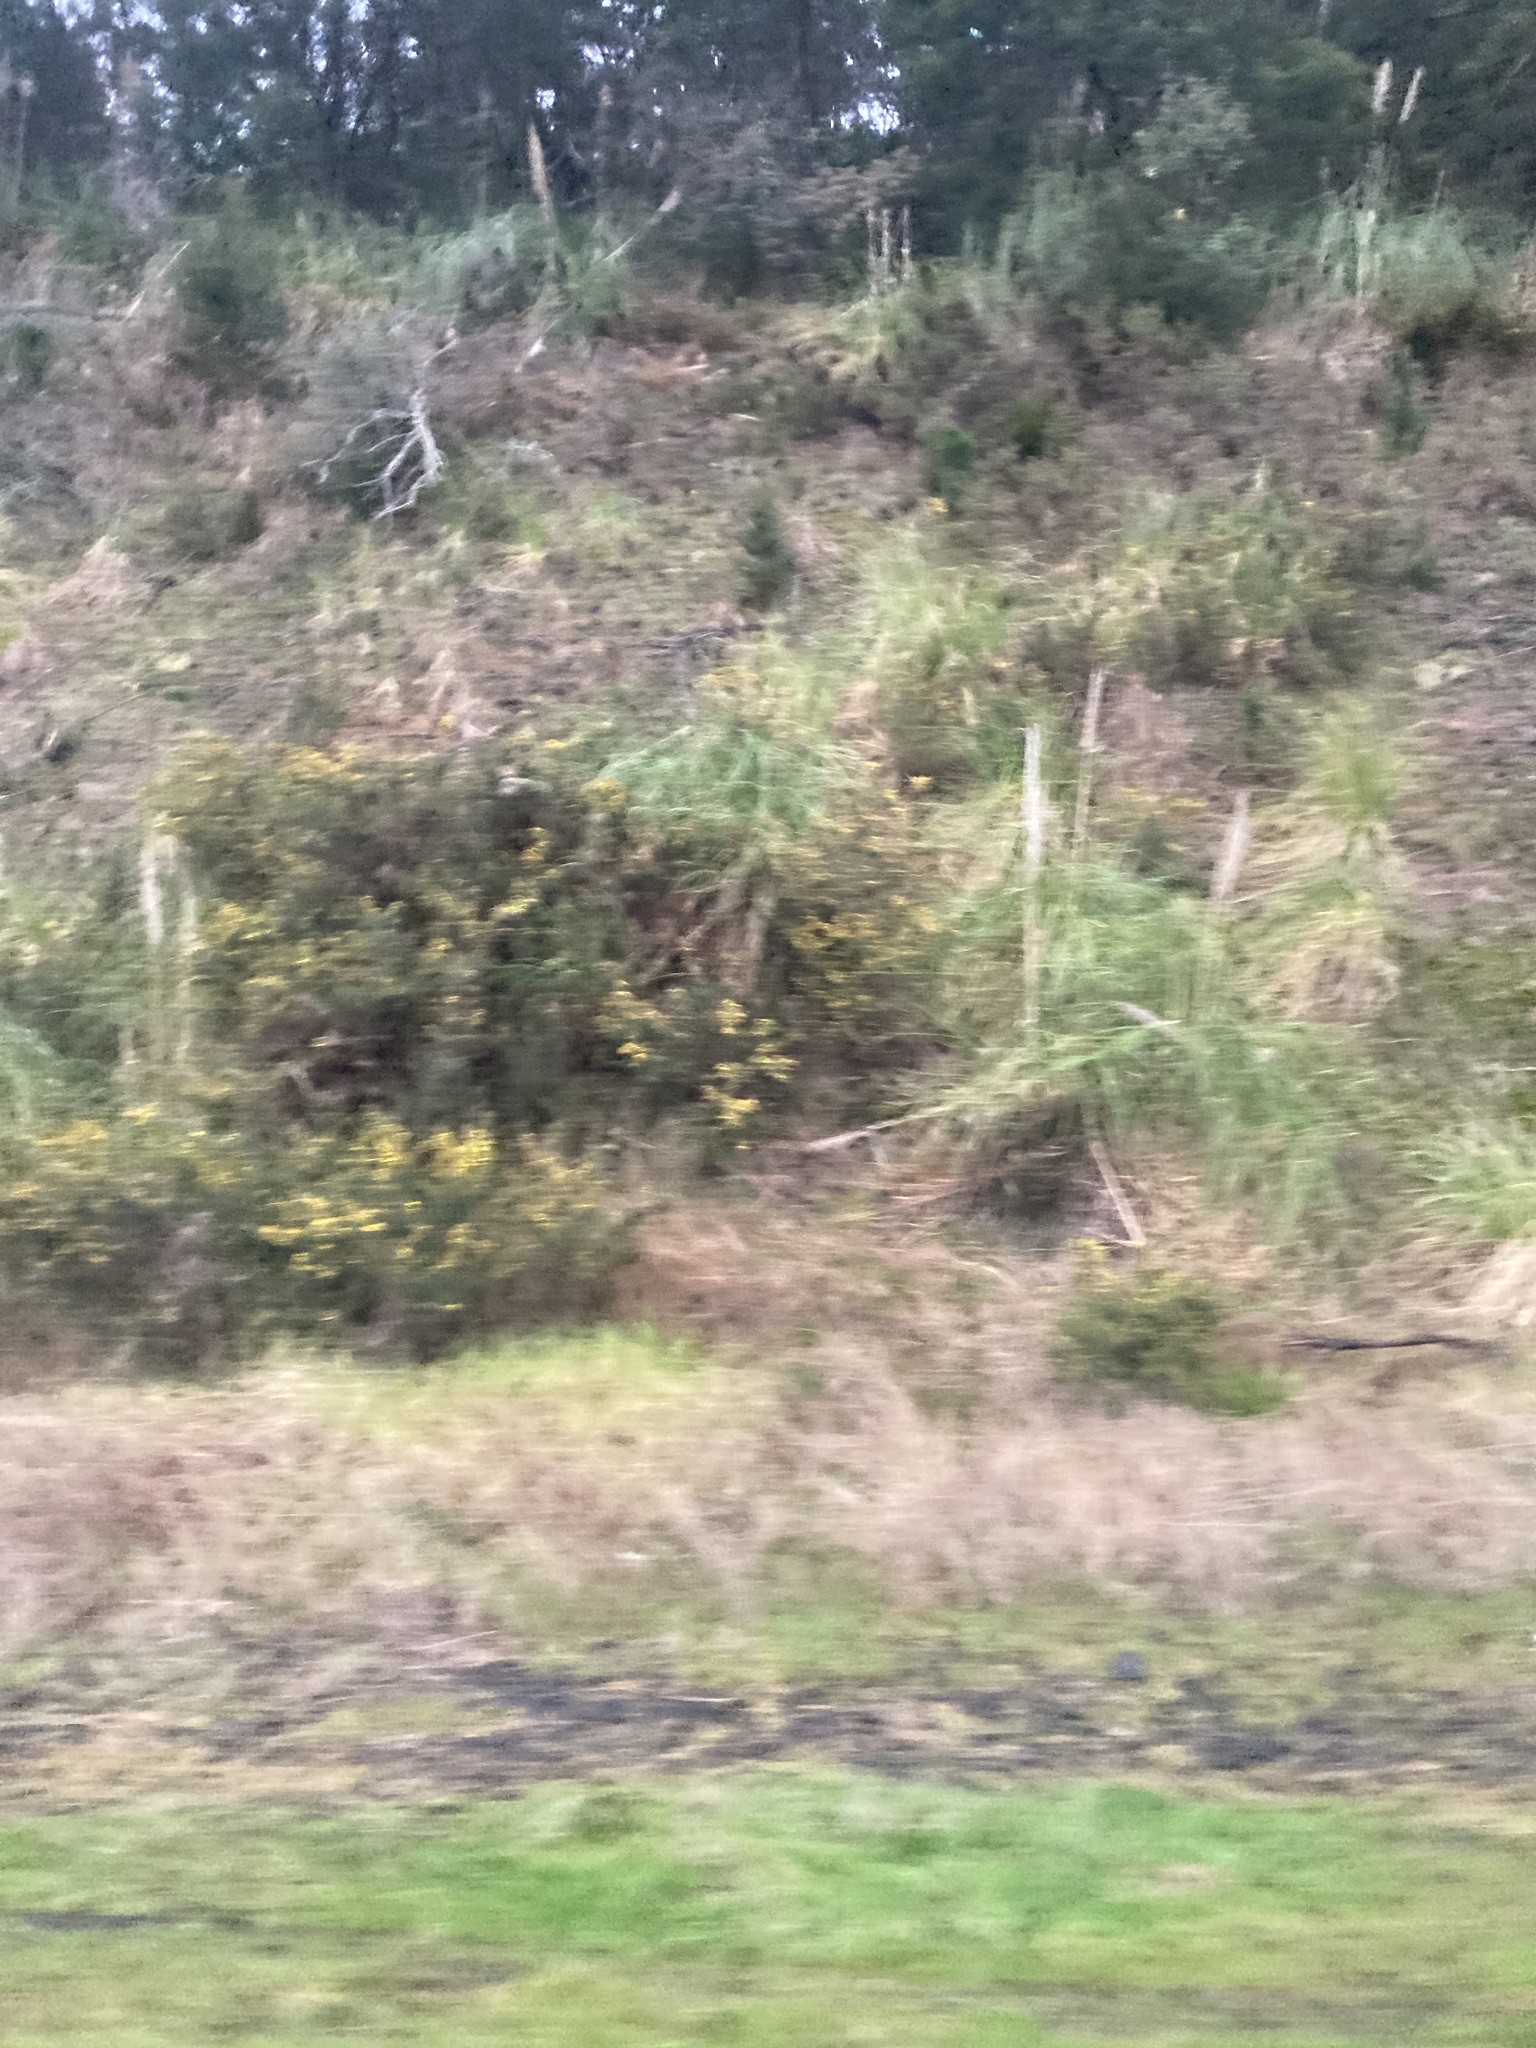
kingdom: Plantae
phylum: Tracheophyta
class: Magnoliopsida
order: Fabales
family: Fabaceae
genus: Ulex
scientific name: Ulex europaeus
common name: Common gorse
